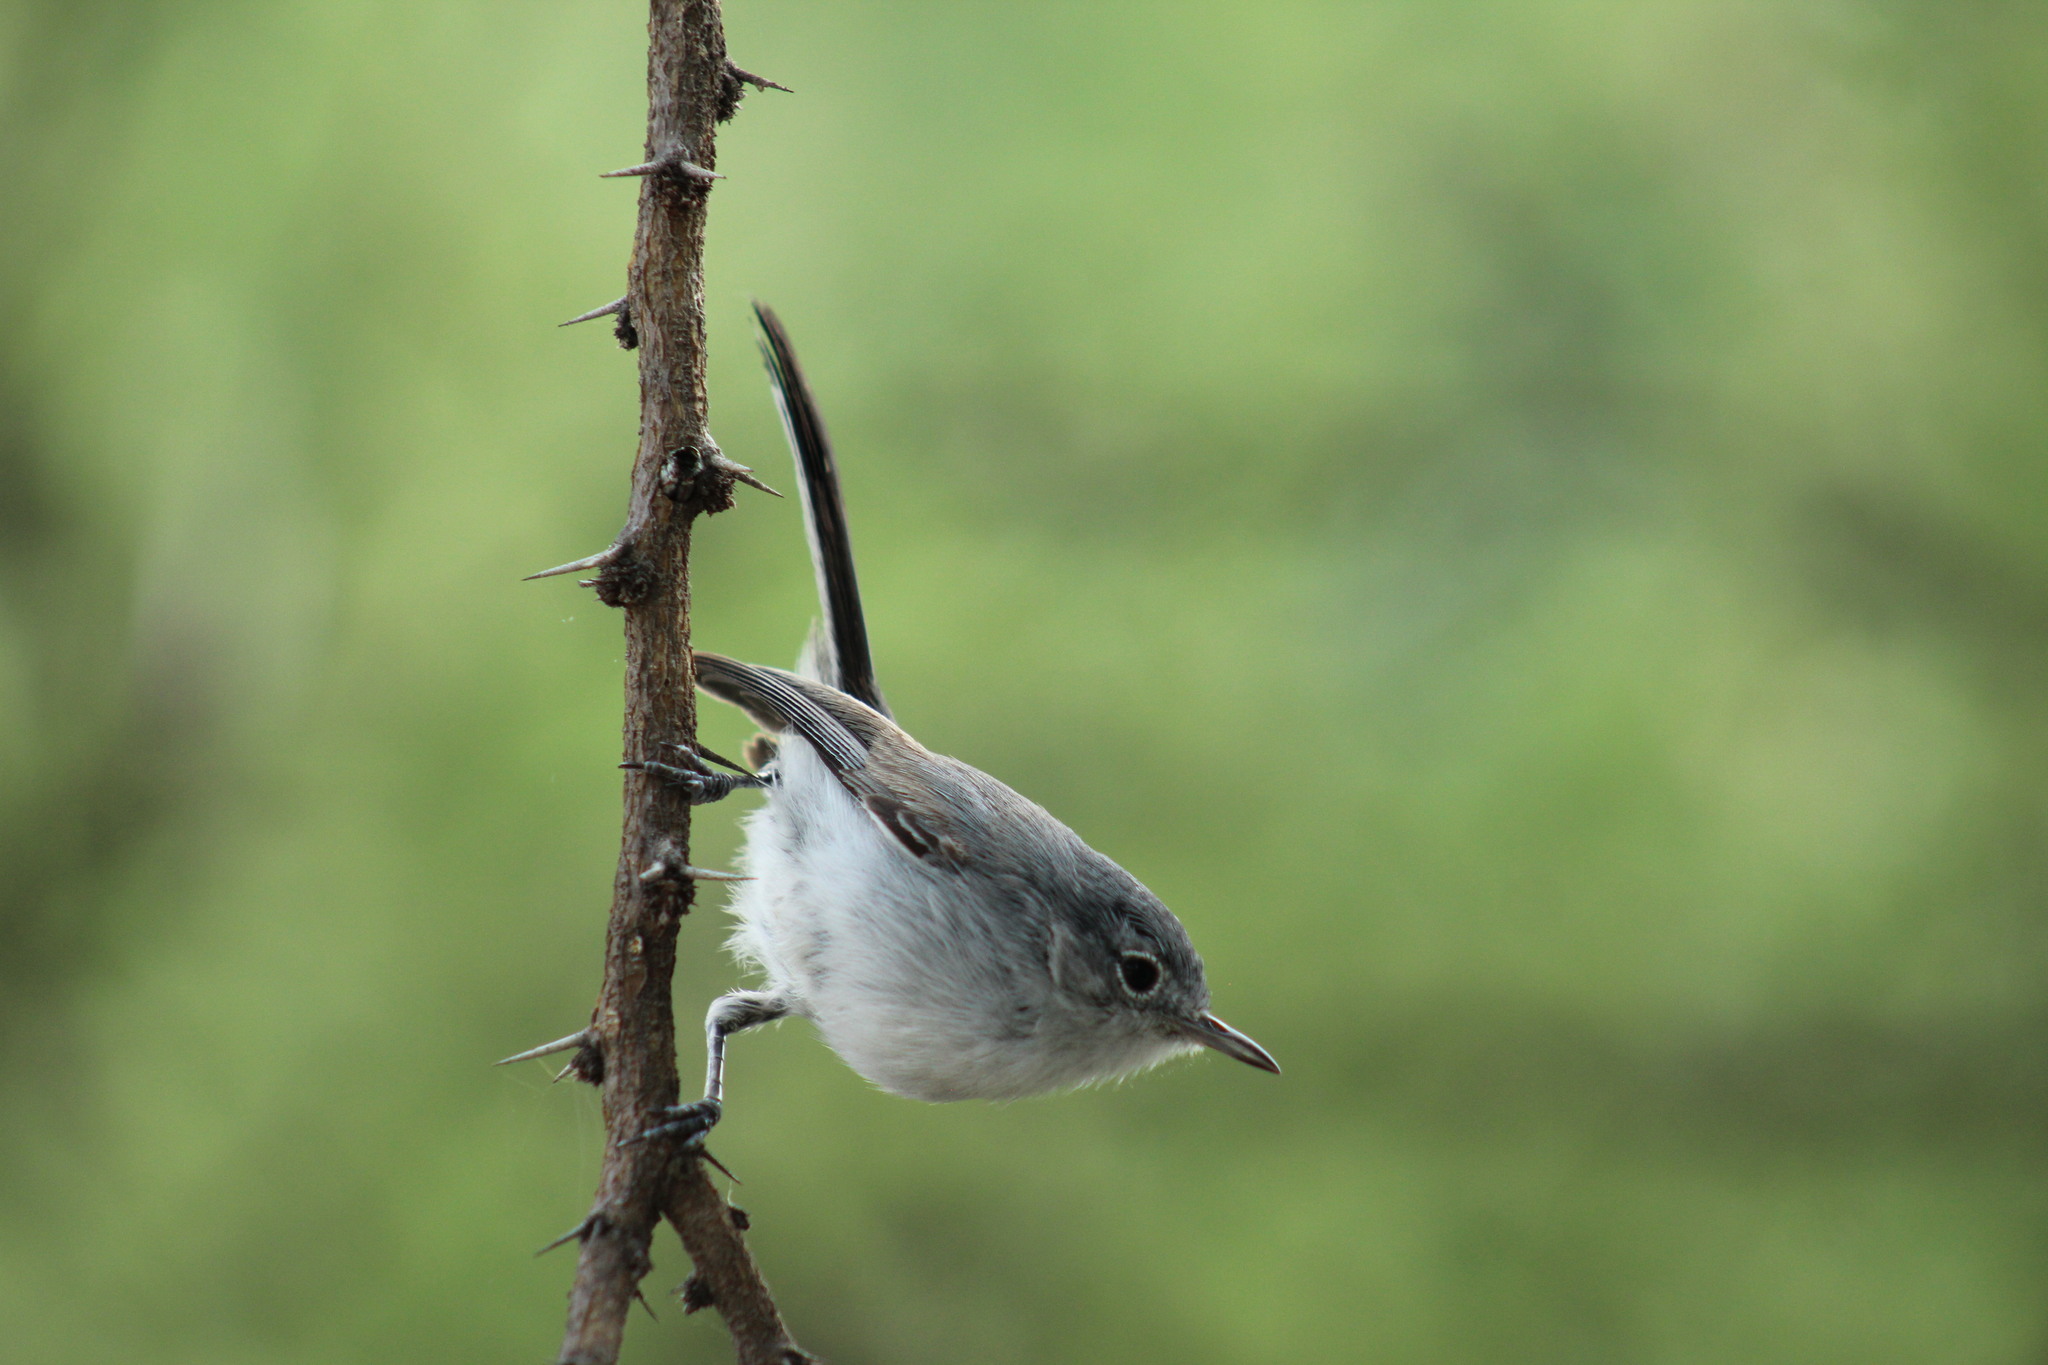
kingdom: Animalia
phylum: Chordata
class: Aves
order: Passeriformes
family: Polioptilidae
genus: Polioptila
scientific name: Polioptila caerulea
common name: Blue-gray gnatcatcher
